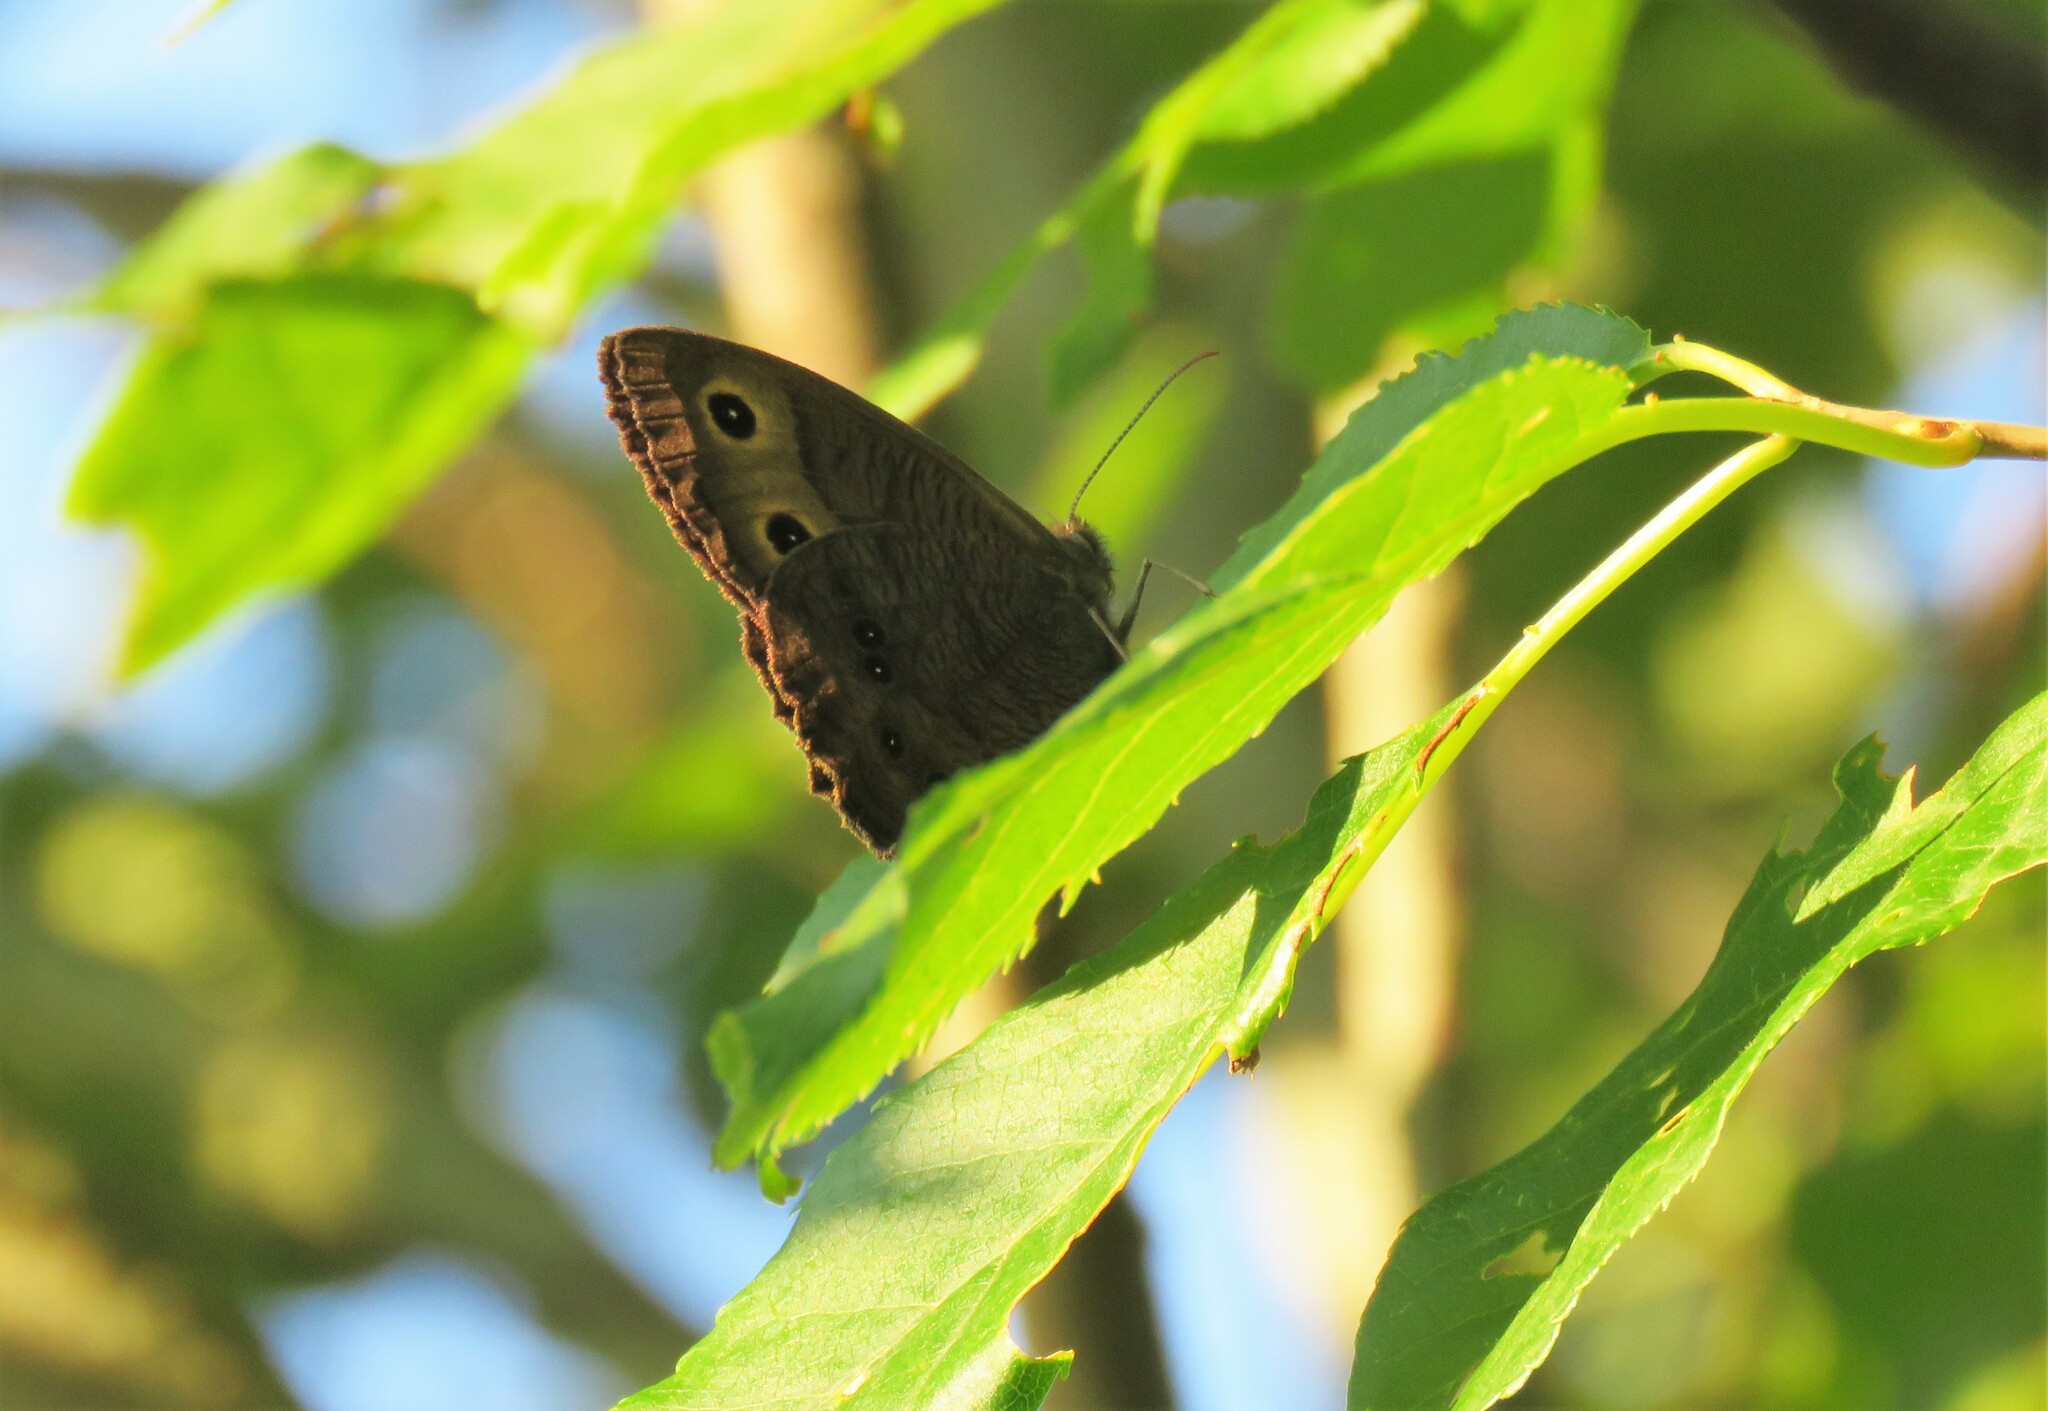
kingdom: Animalia
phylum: Arthropoda
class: Insecta
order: Lepidoptera
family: Nymphalidae
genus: Cercyonis
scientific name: Cercyonis pegala
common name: Common wood-nymph
